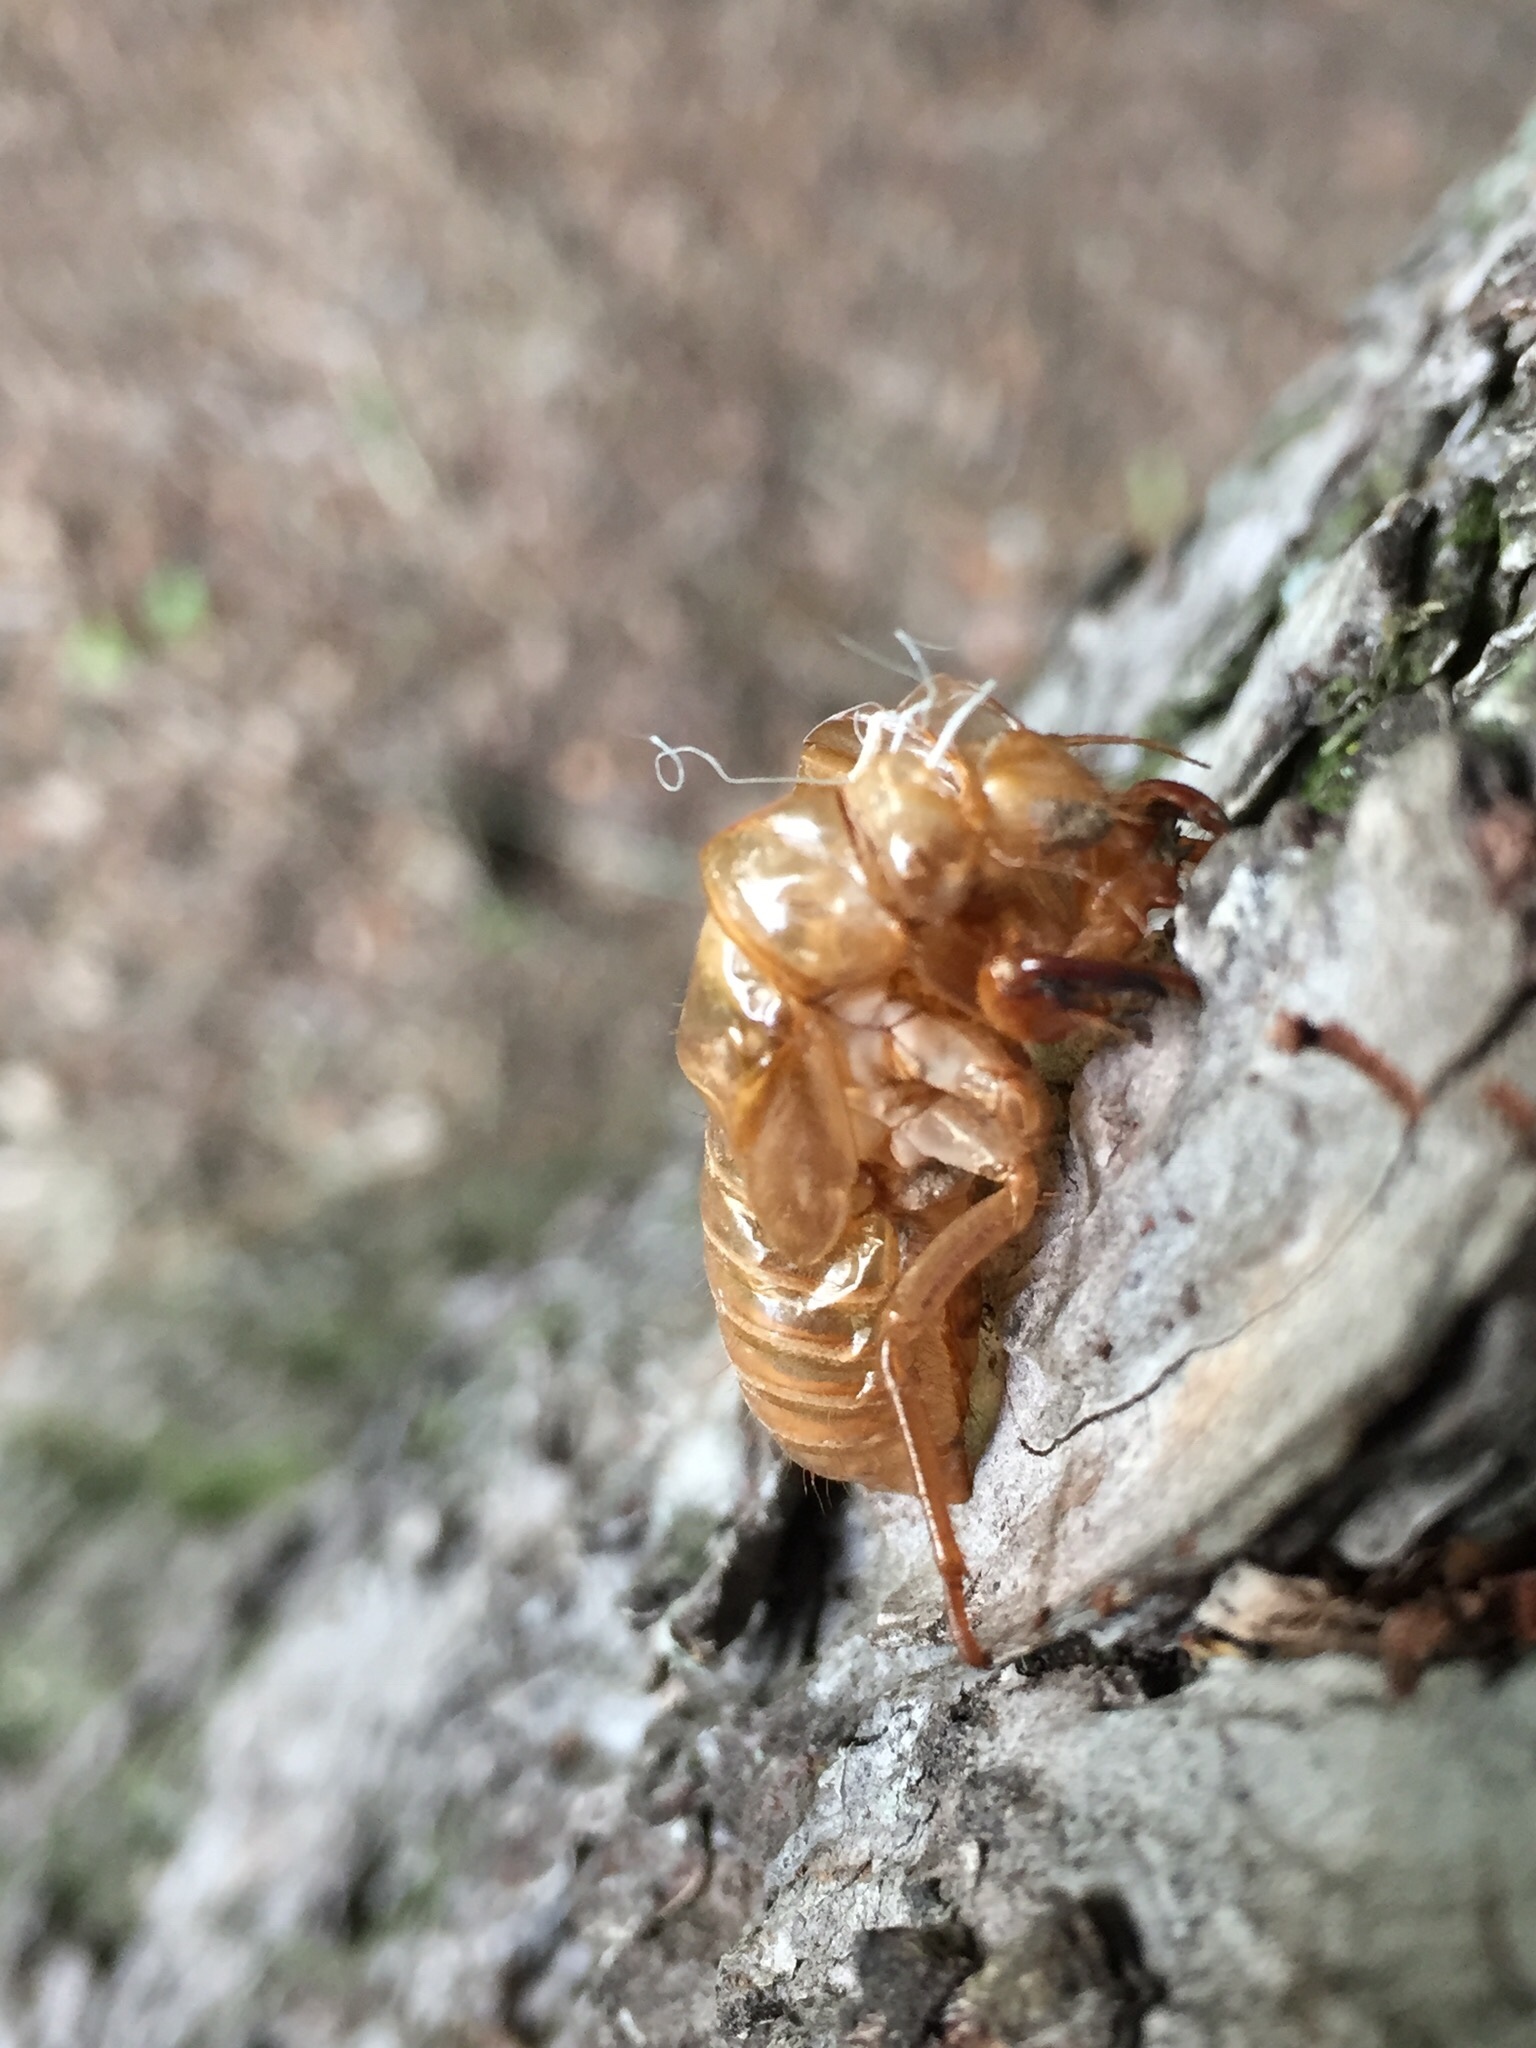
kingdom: Animalia
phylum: Arthropoda
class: Insecta
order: Hemiptera
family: Cicadidae
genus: Magicicada
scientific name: Magicicada
